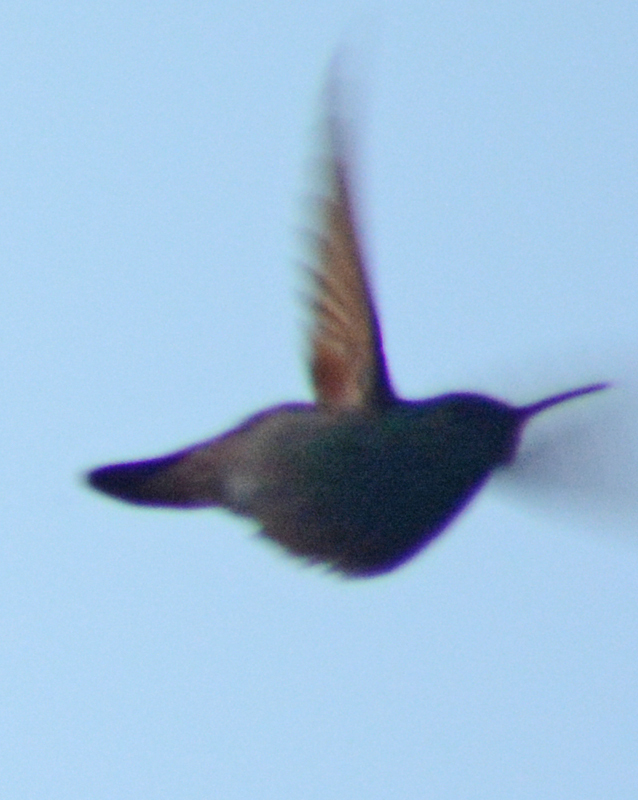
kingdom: Animalia
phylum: Chordata
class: Aves
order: Apodiformes
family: Trochilidae
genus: Saucerottia
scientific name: Saucerottia beryllina
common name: Berylline hummingbird
